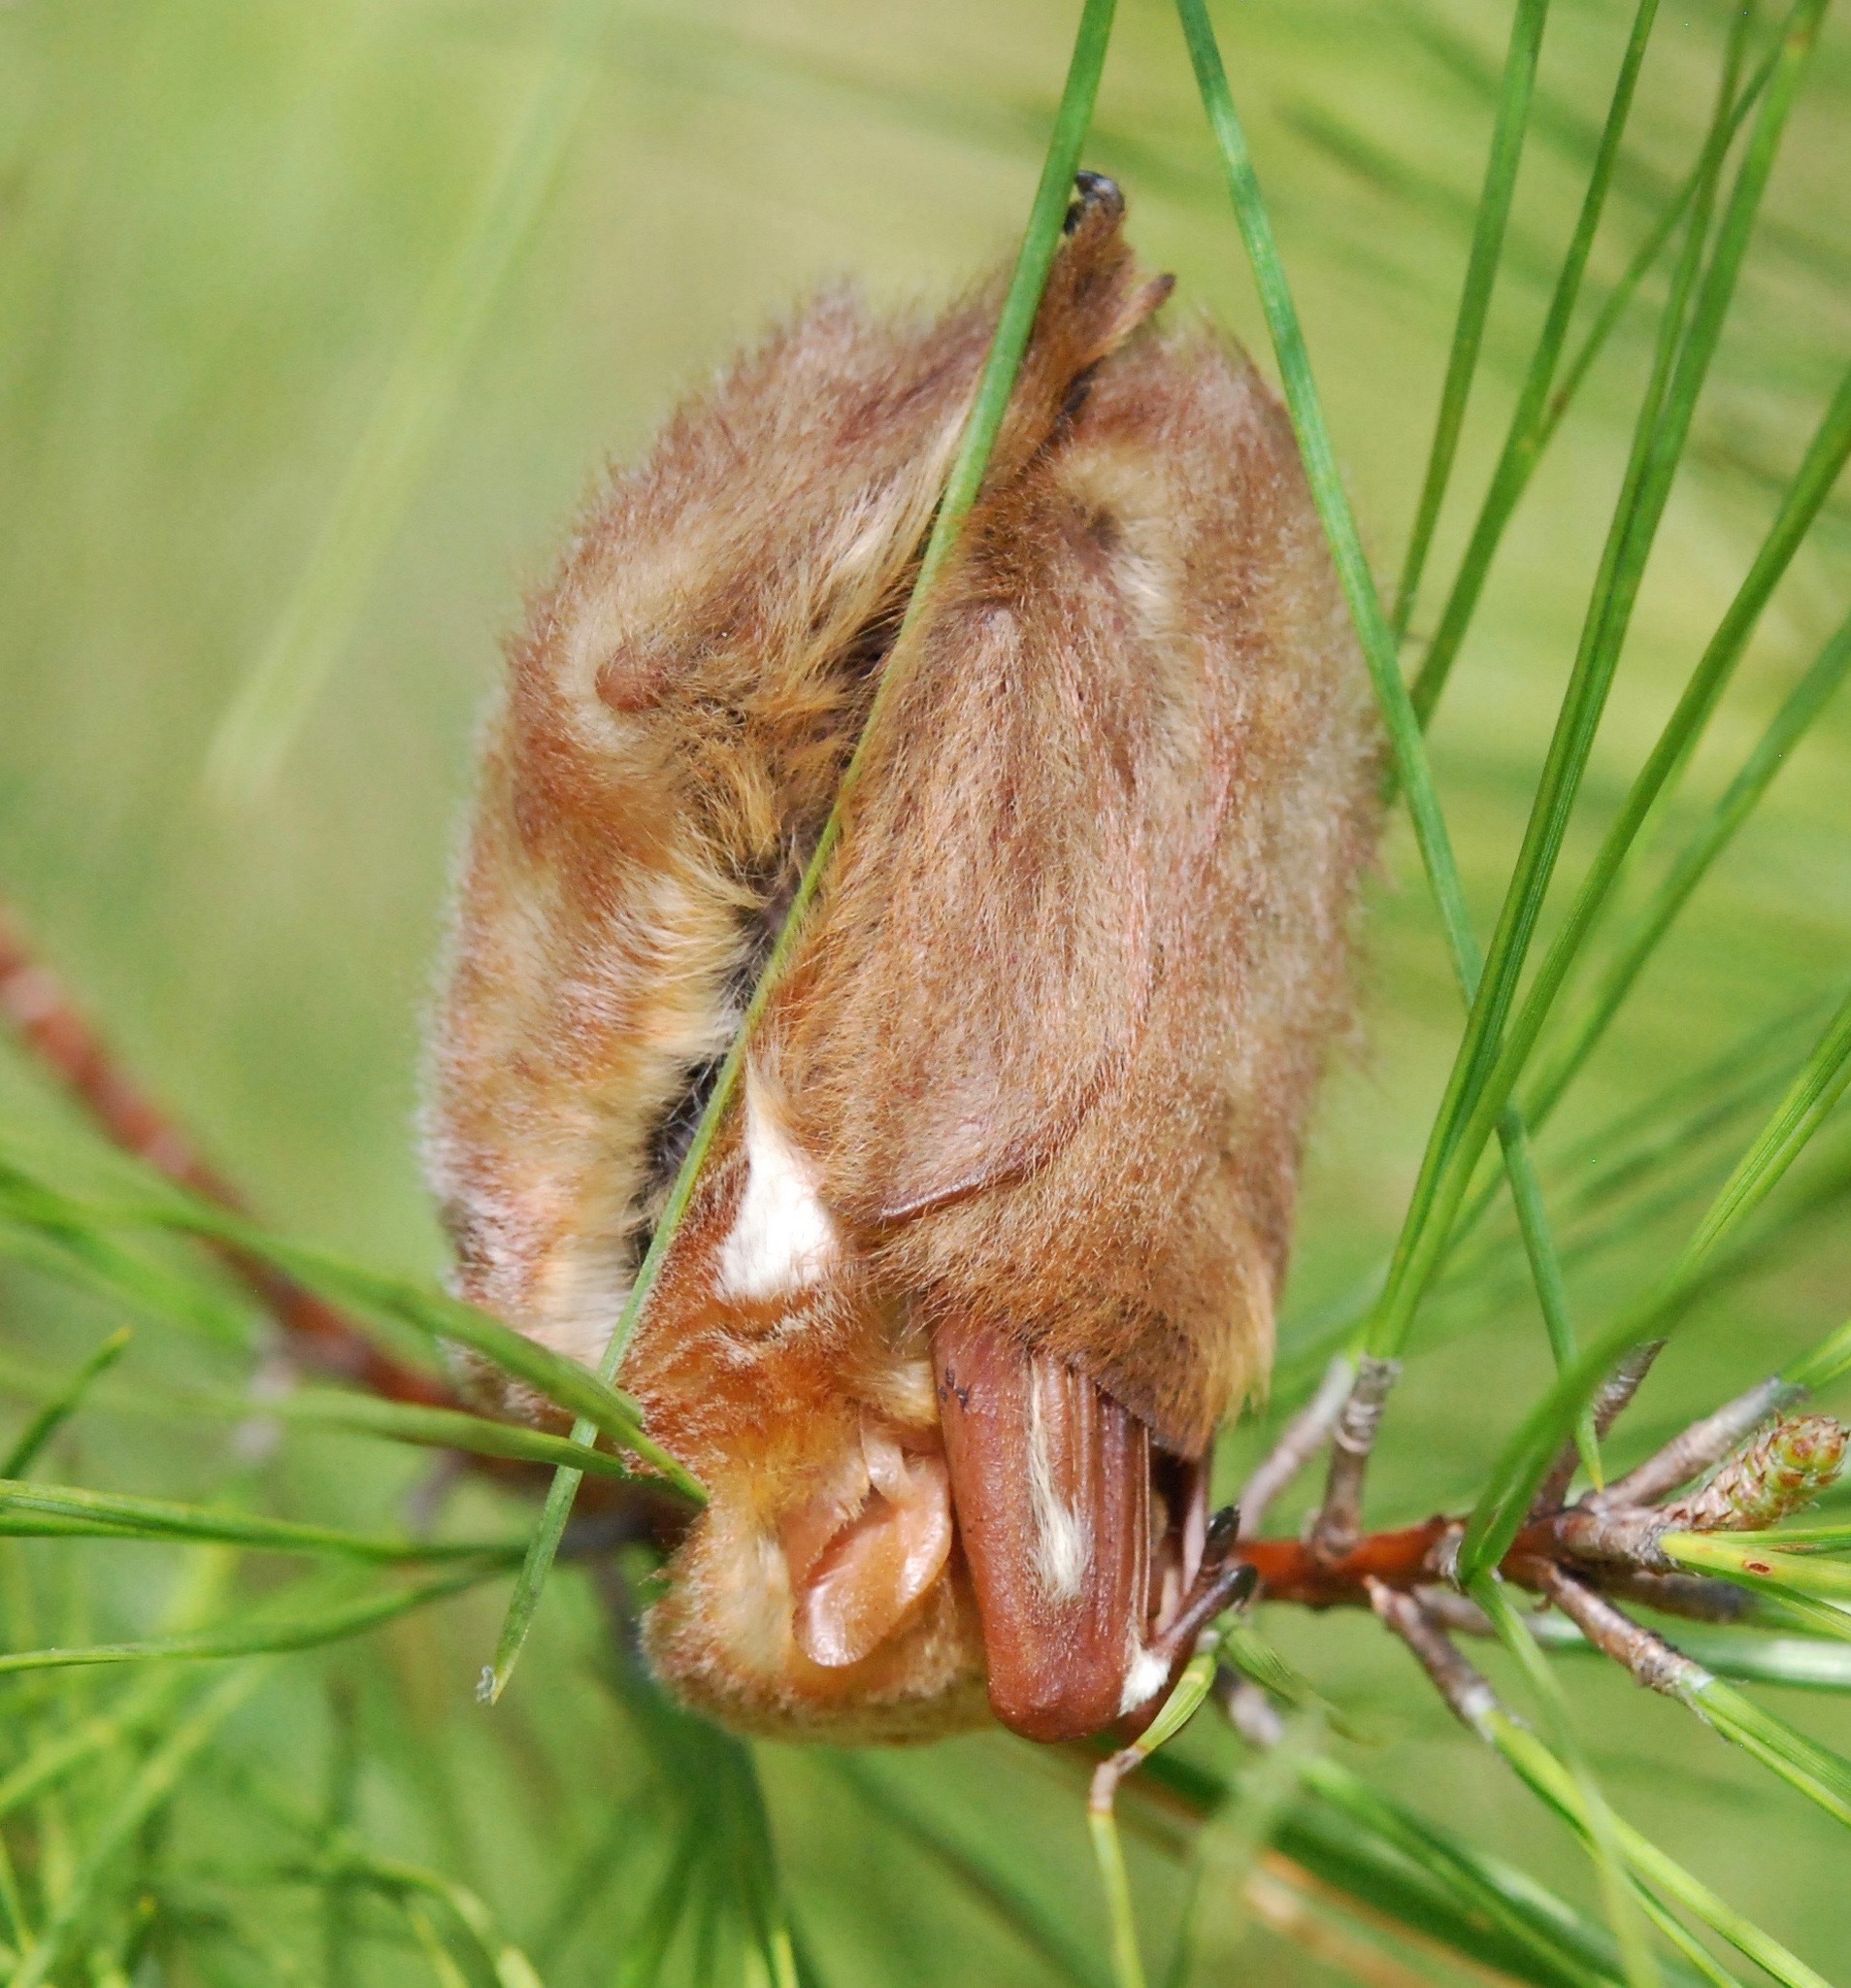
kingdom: Animalia
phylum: Chordata
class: Mammalia
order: Chiroptera
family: Vespertilionidae
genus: Lasiurus
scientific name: Lasiurus borealis
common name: Eastern red bat
